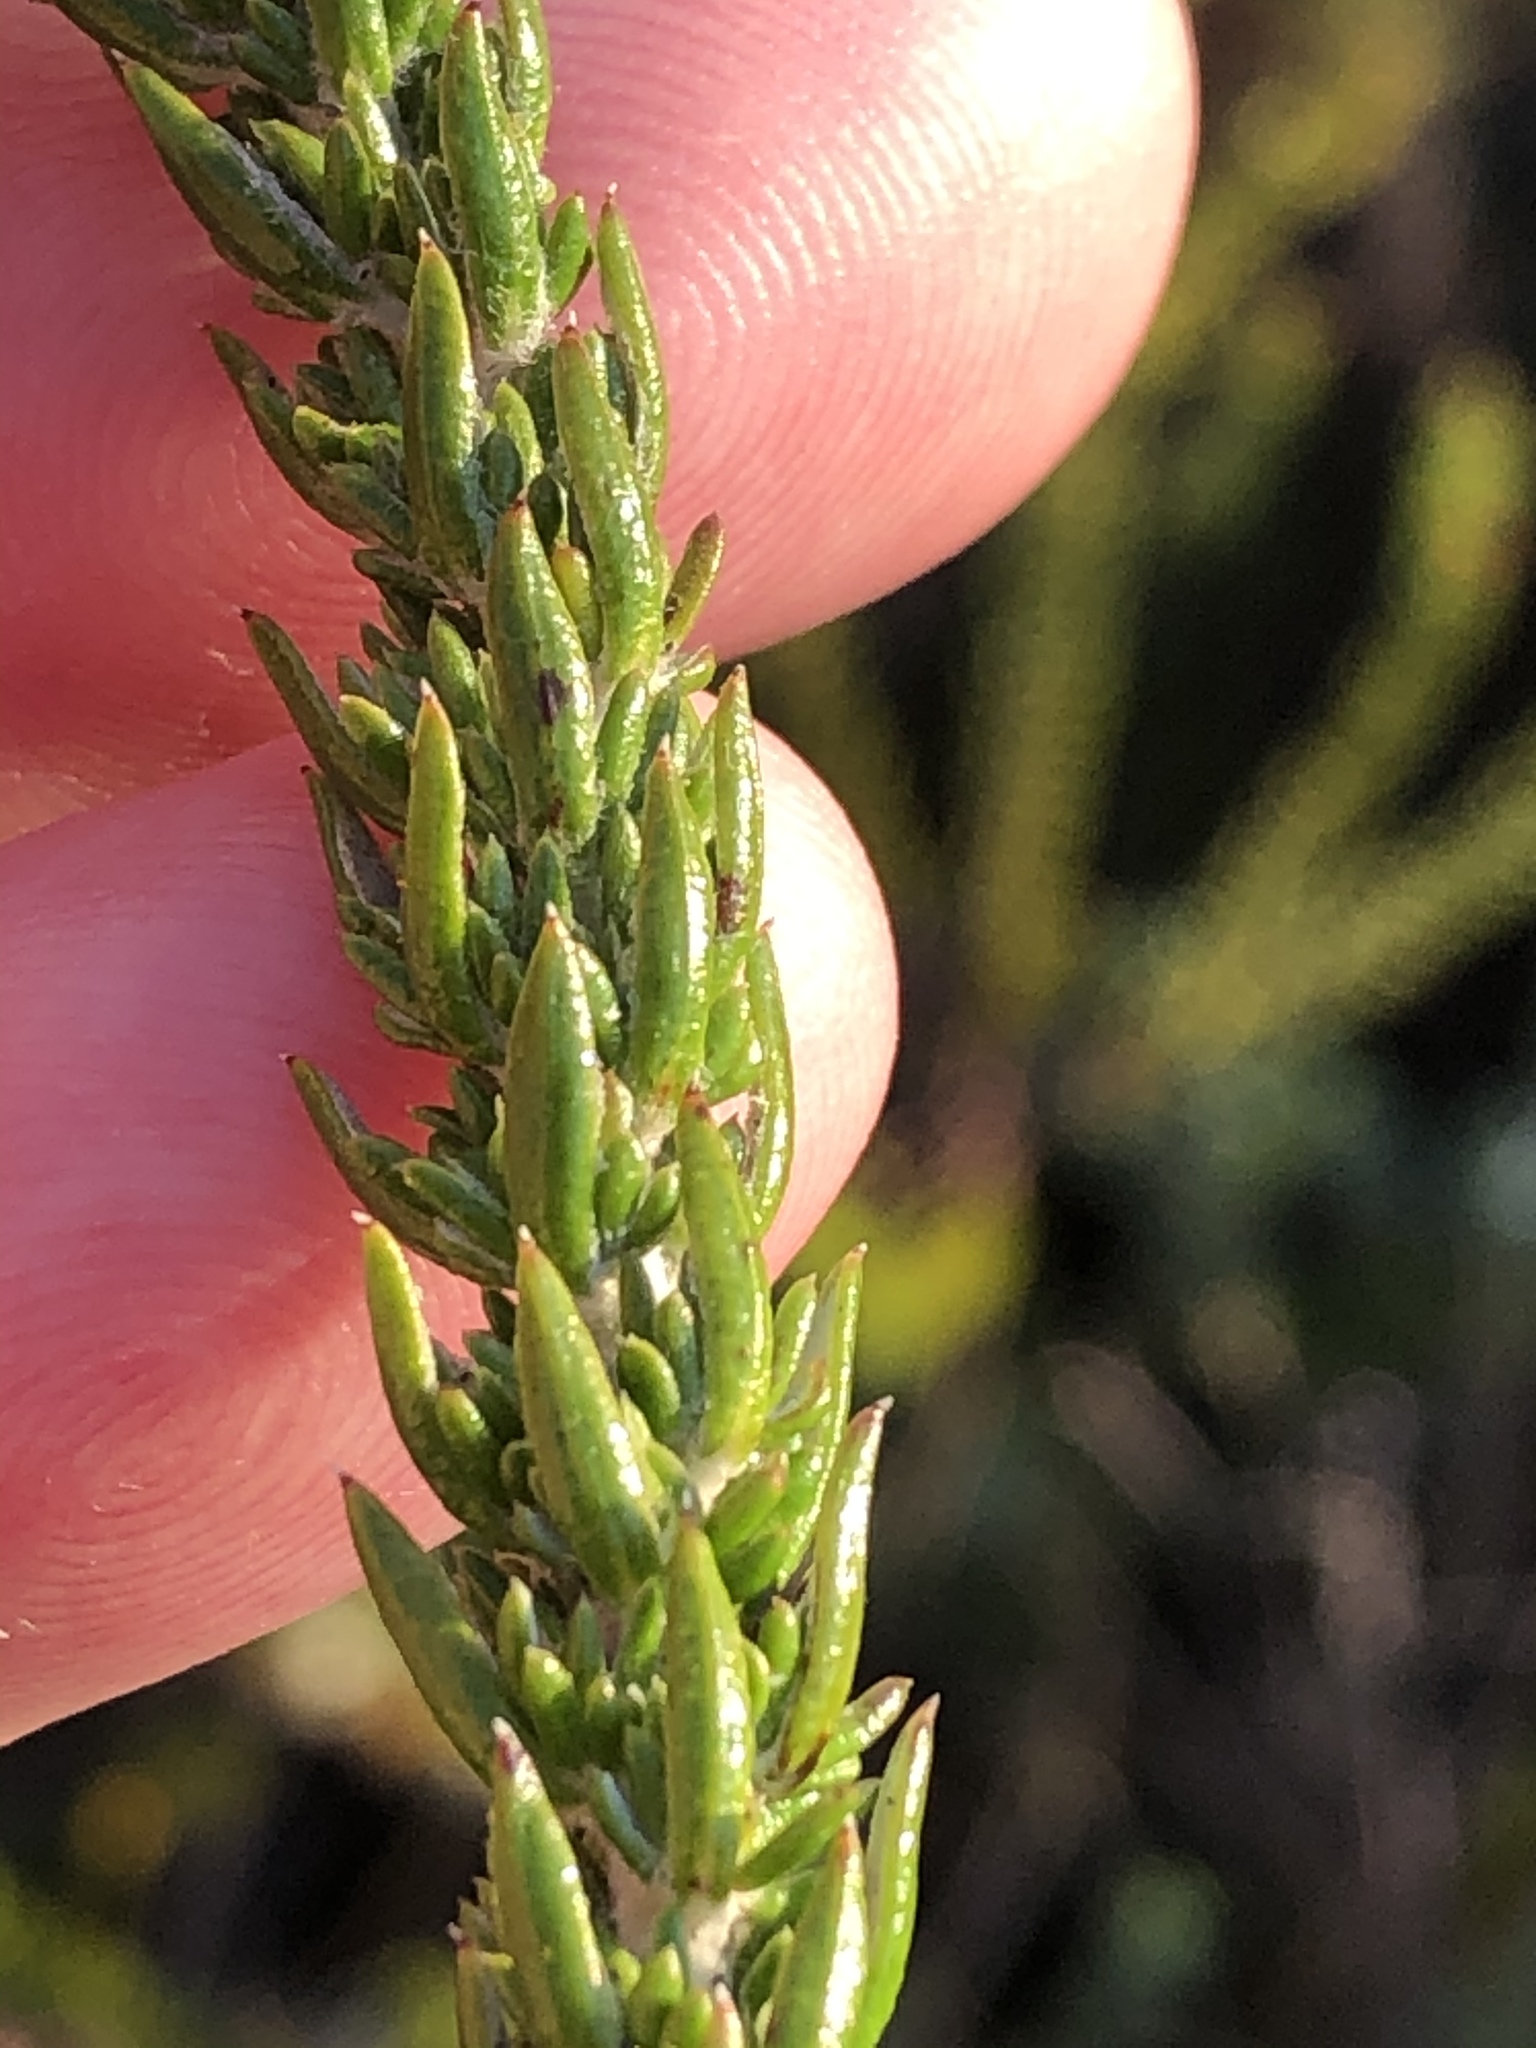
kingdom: Plantae
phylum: Tracheophyta
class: Magnoliopsida
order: Asterales
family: Asteraceae
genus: Metalasia
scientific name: Metalasia pungens
